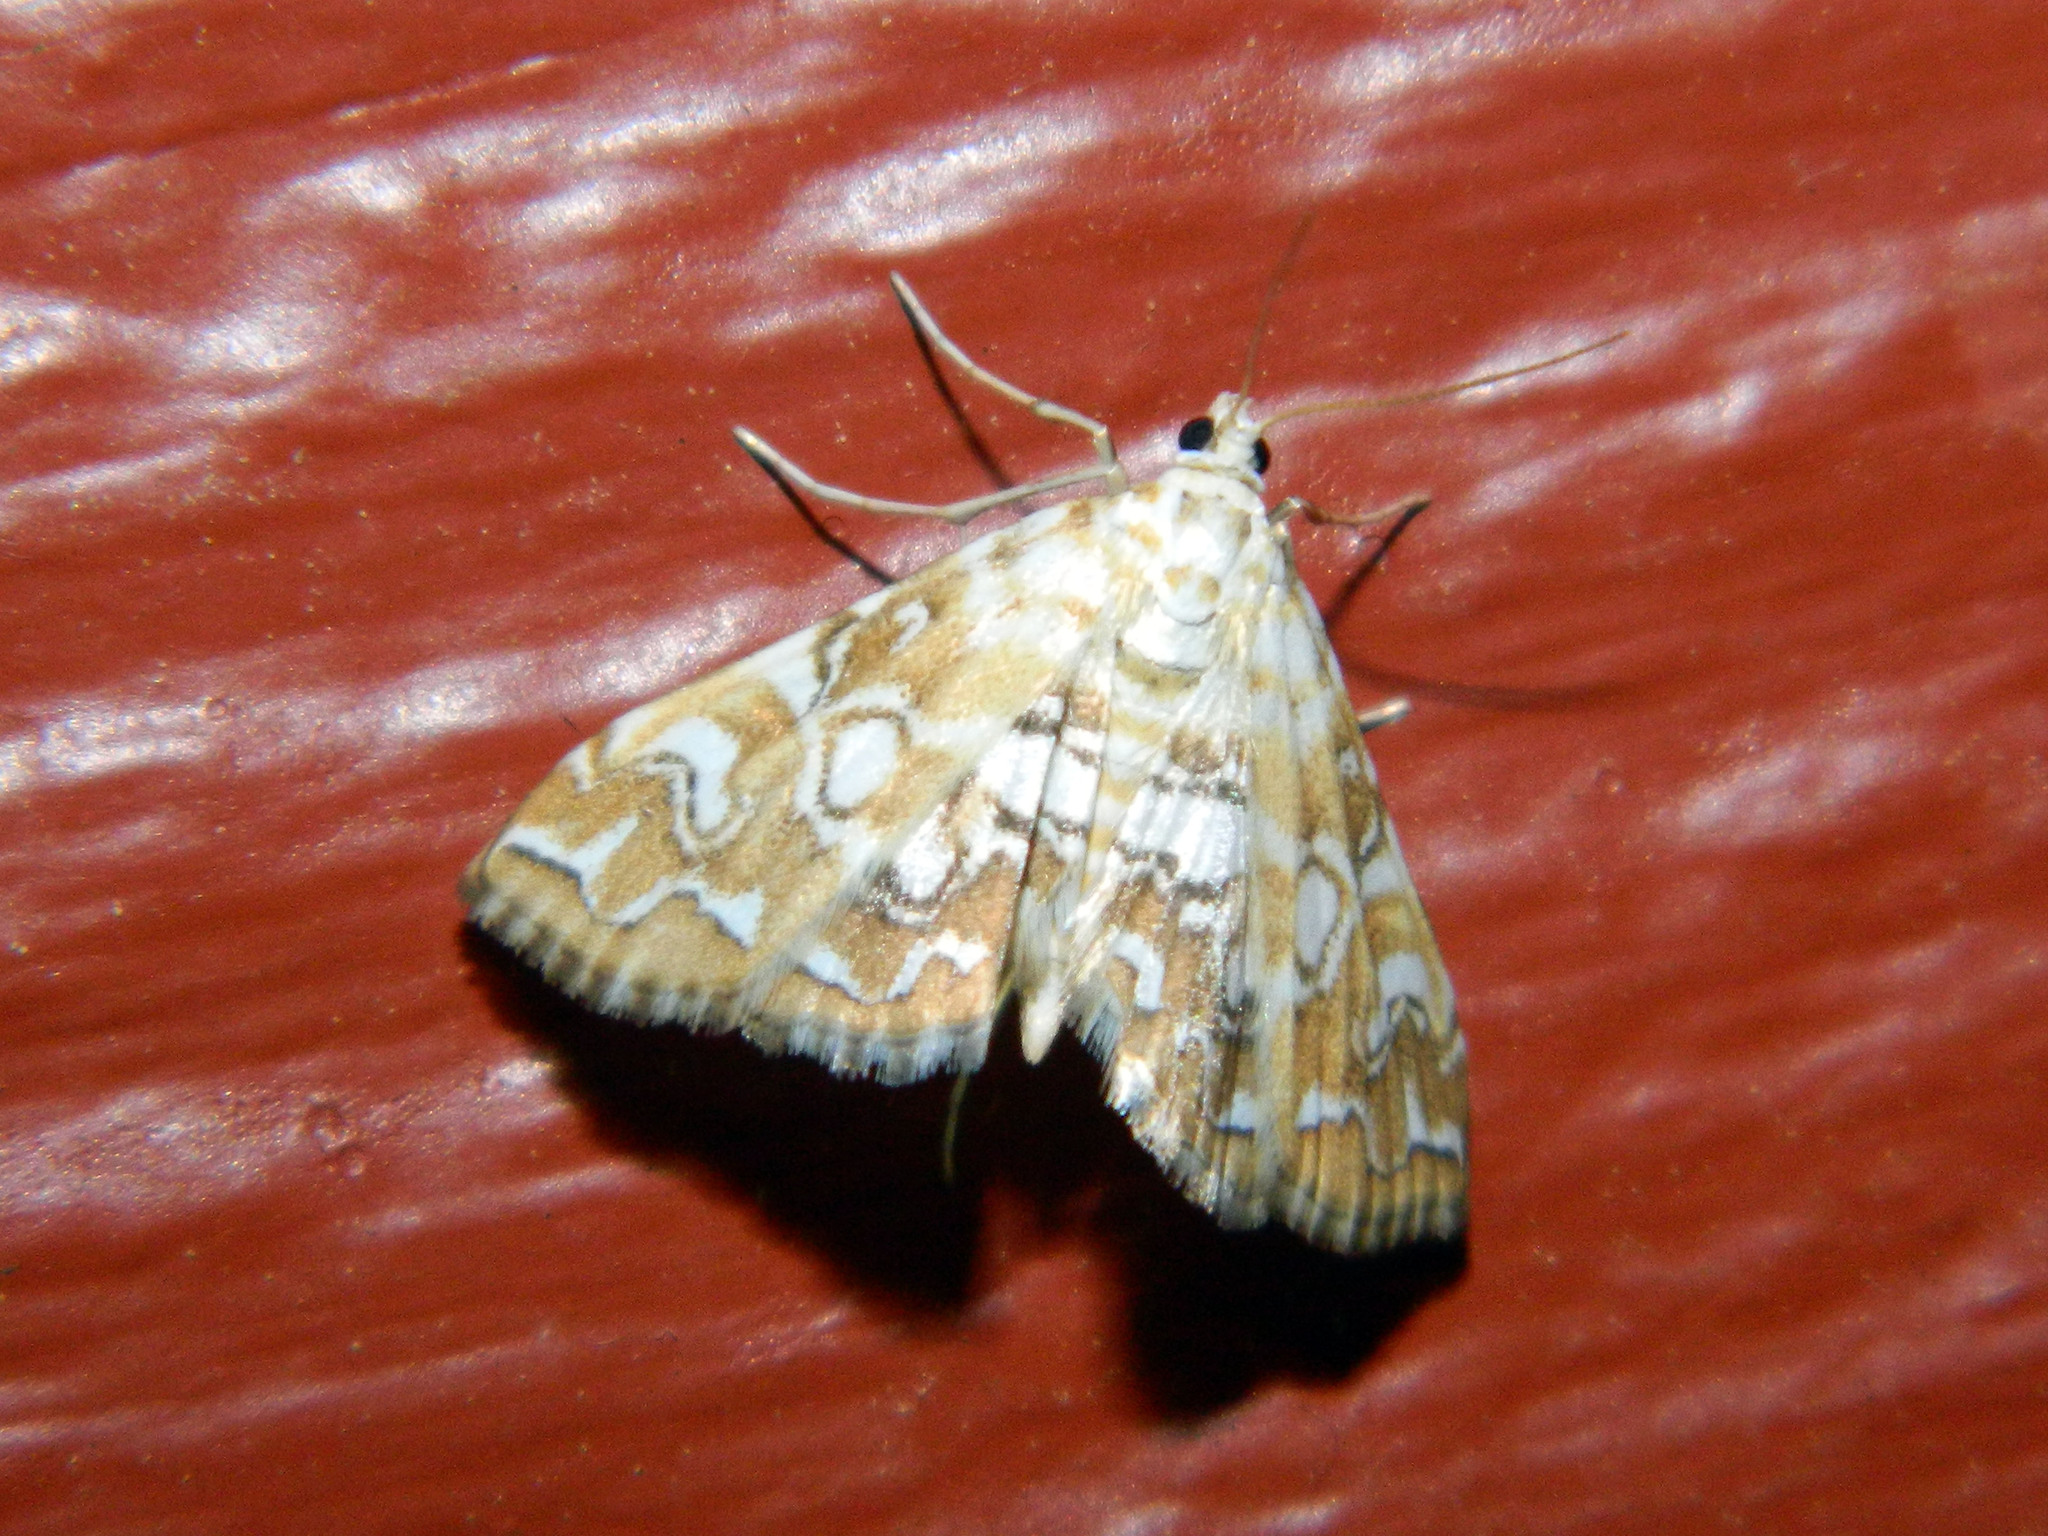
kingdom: Animalia
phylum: Arthropoda
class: Insecta
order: Lepidoptera
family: Crambidae
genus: Elophila
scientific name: Elophila icciusalis
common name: Pondside pyralid moth
